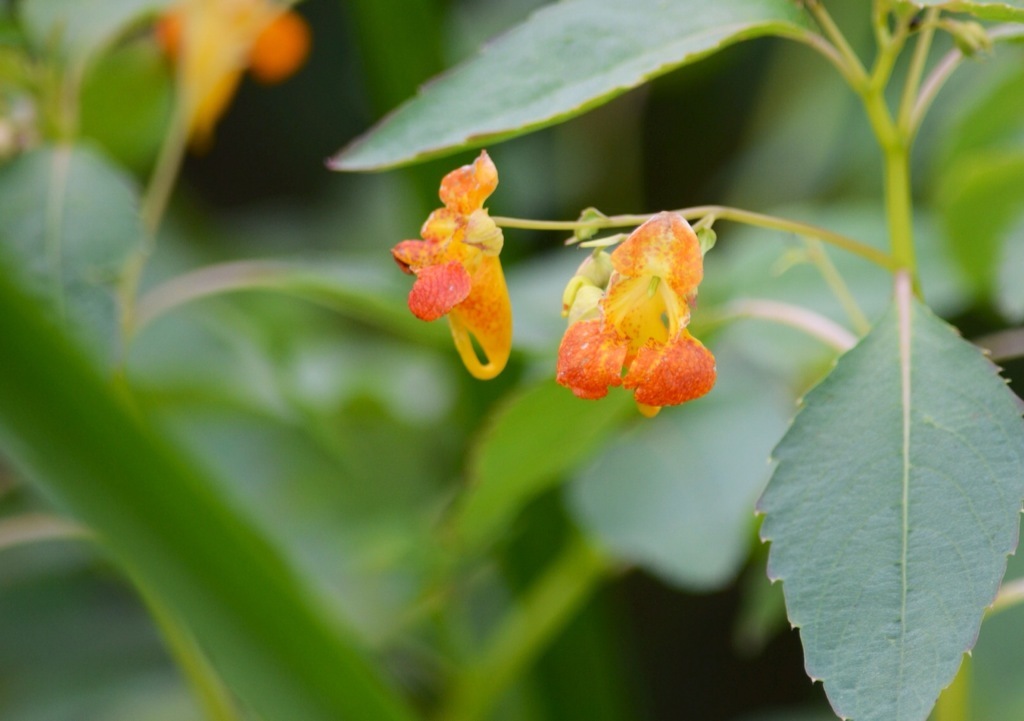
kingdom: Plantae
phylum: Tracheophyta
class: Magnoliopsida
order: Ericales
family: Balsaminaceae
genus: Impatiens
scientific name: Impatiens capensis
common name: Orange balsam
